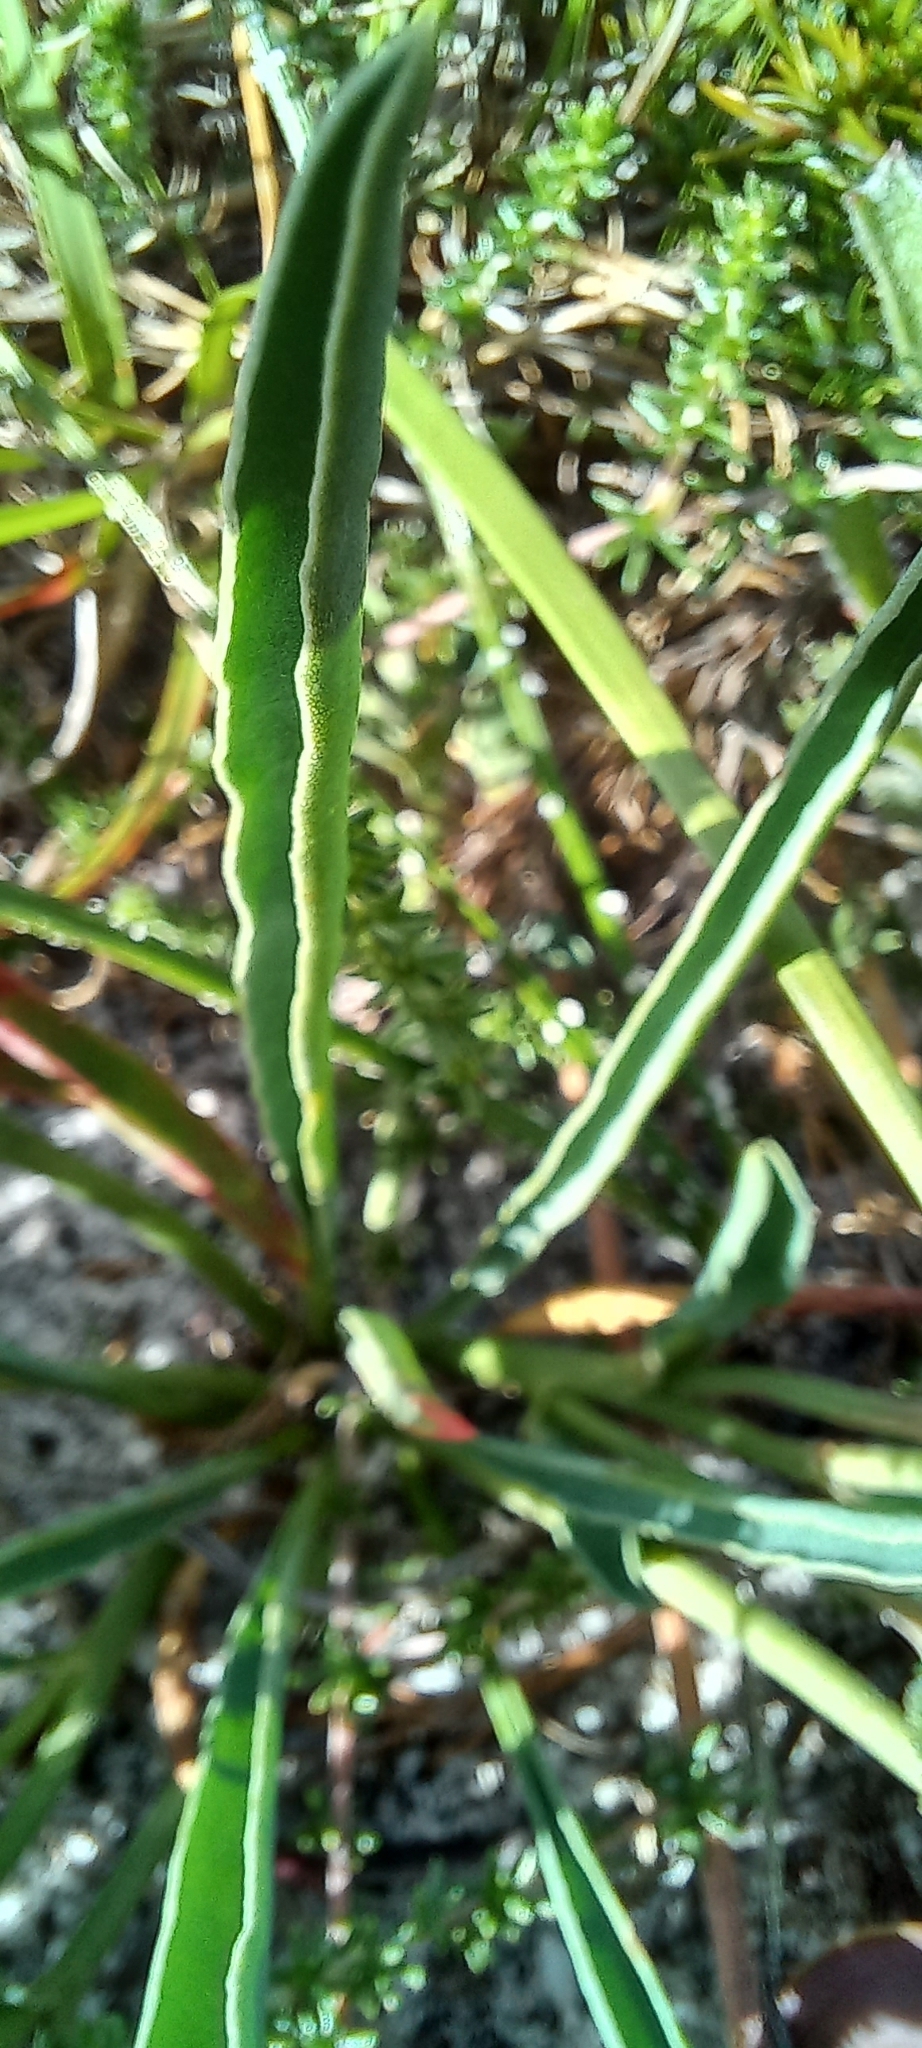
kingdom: Plantae
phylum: Tracheophyta
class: Magnoliopsida
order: Malpighiales
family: Euphorbiaceae
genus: Euphorbia
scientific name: Euphorbia tuberosa
